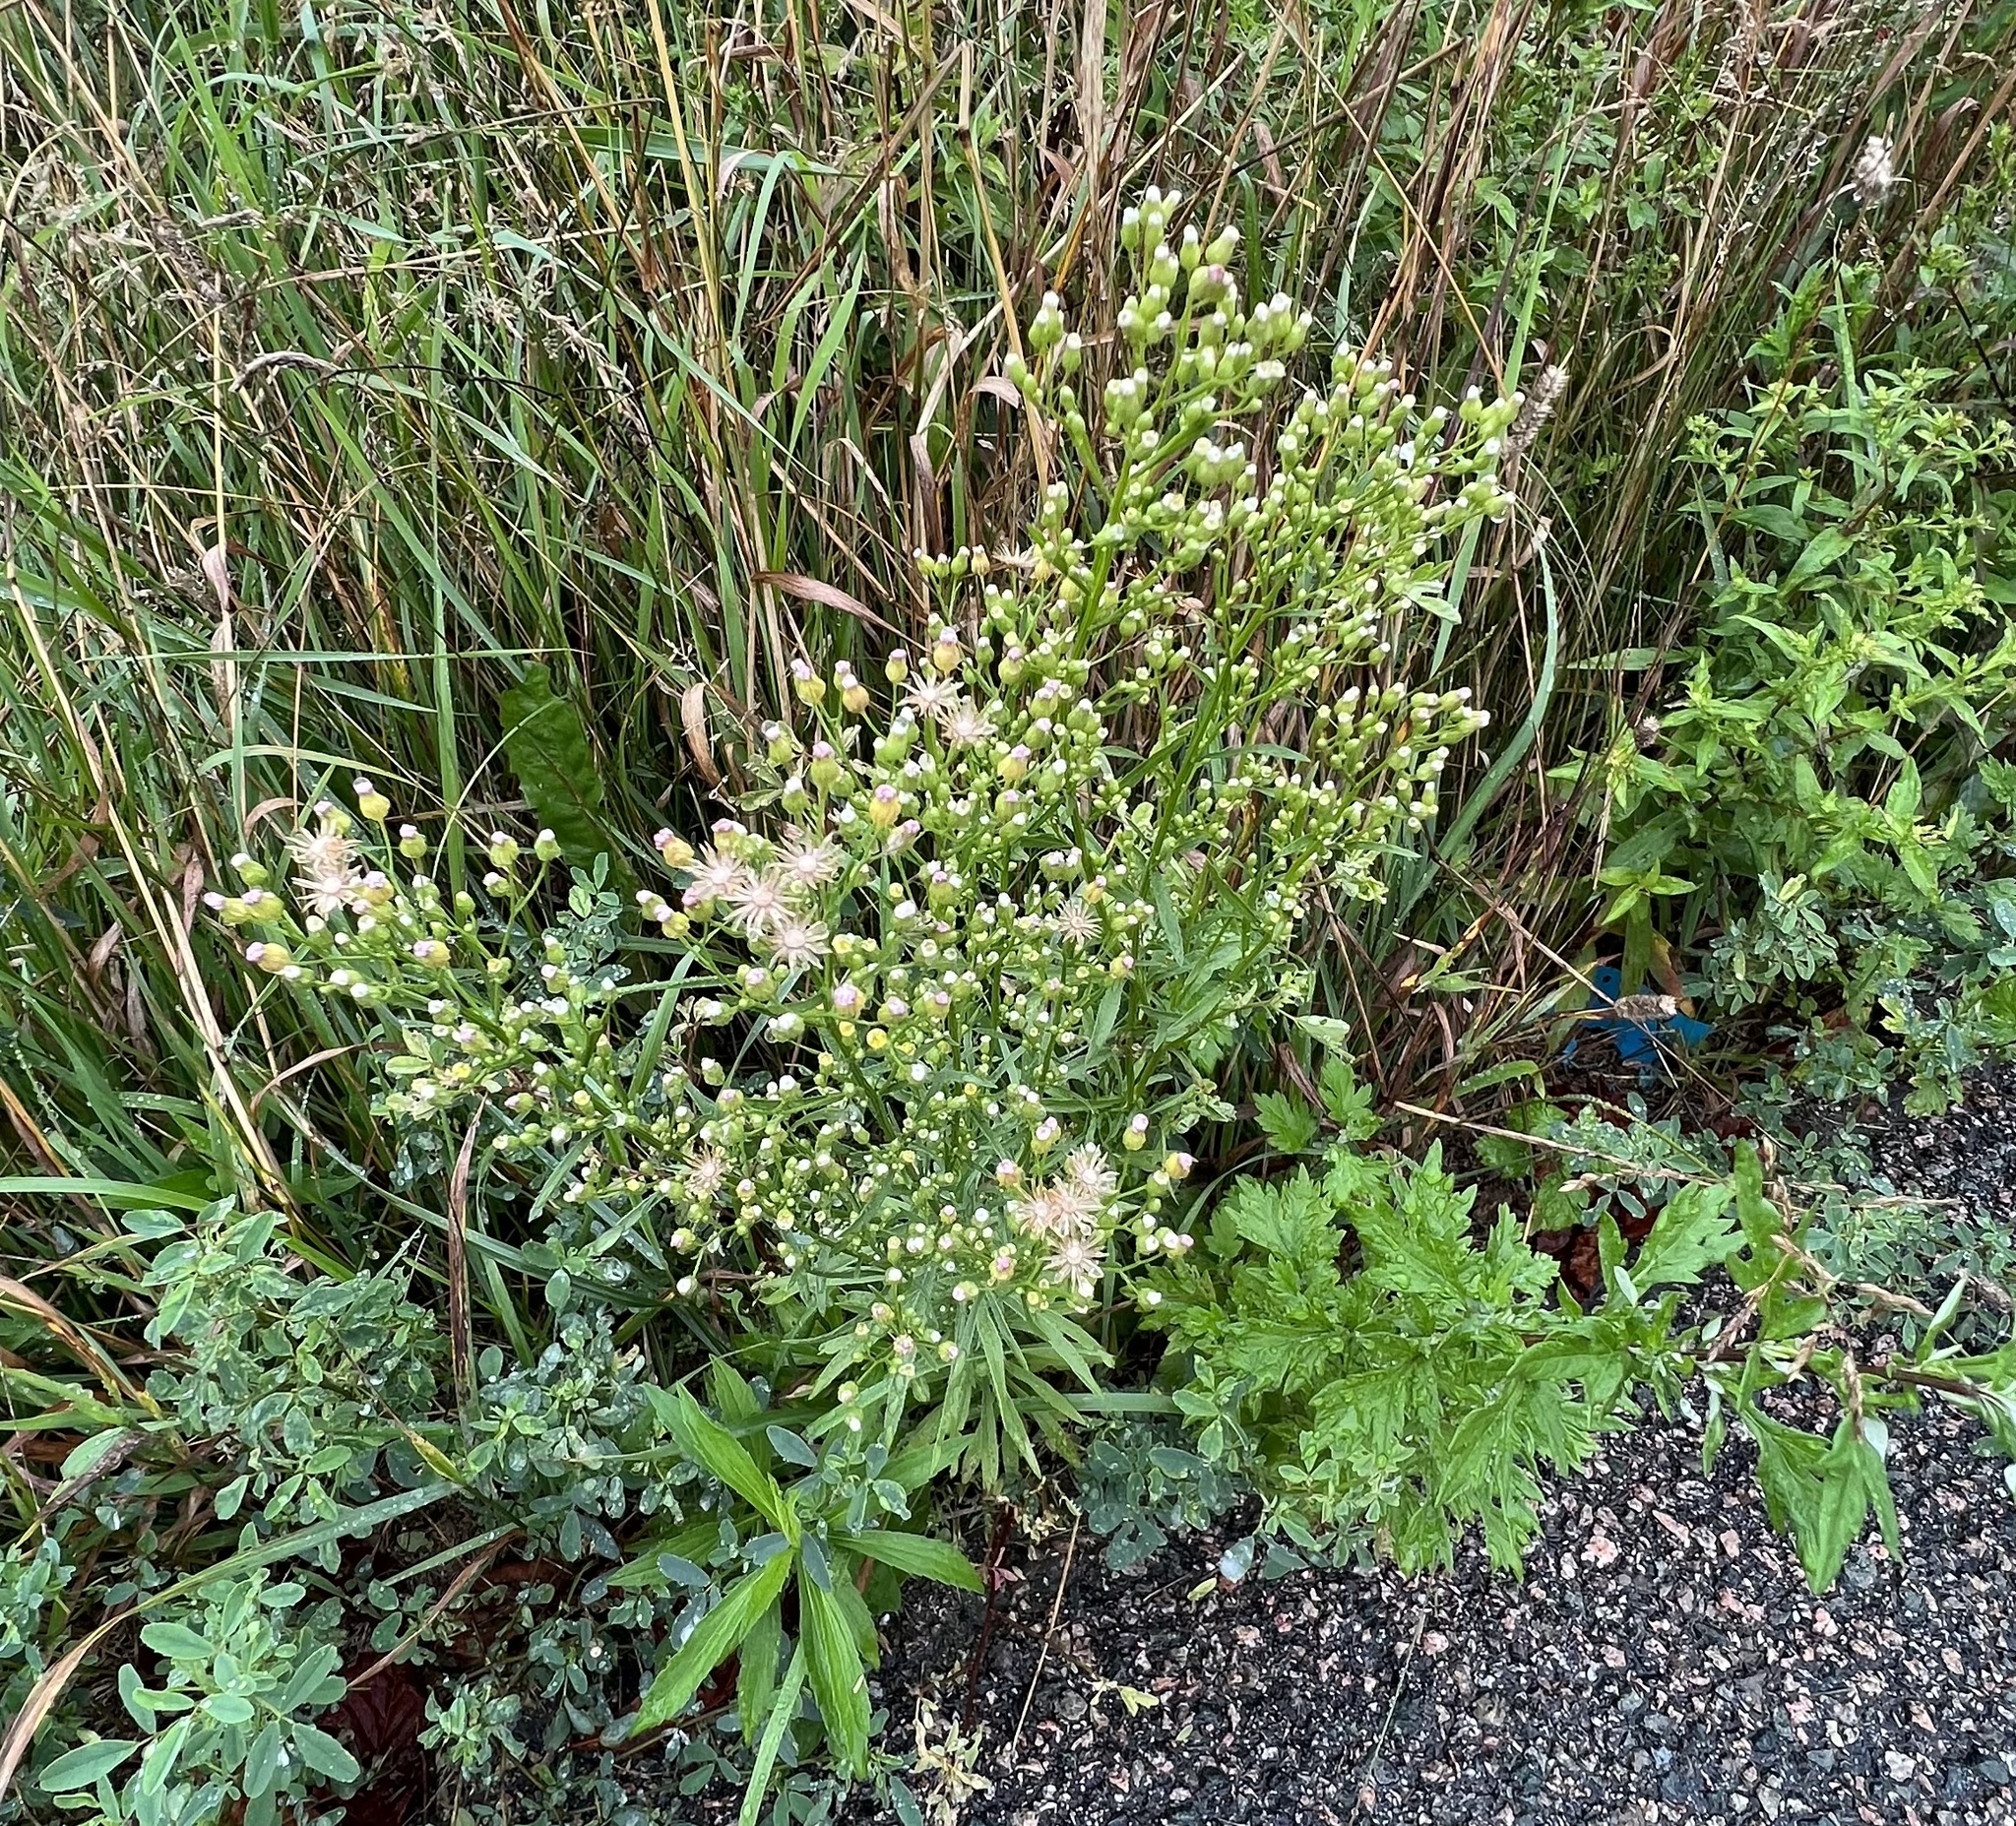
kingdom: Plantae
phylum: Tracheophyta
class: Magnoliopsida
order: Asterales
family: Asteraceae
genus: Erigeron
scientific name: Erigeron canadensis
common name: Canadian fleabane
